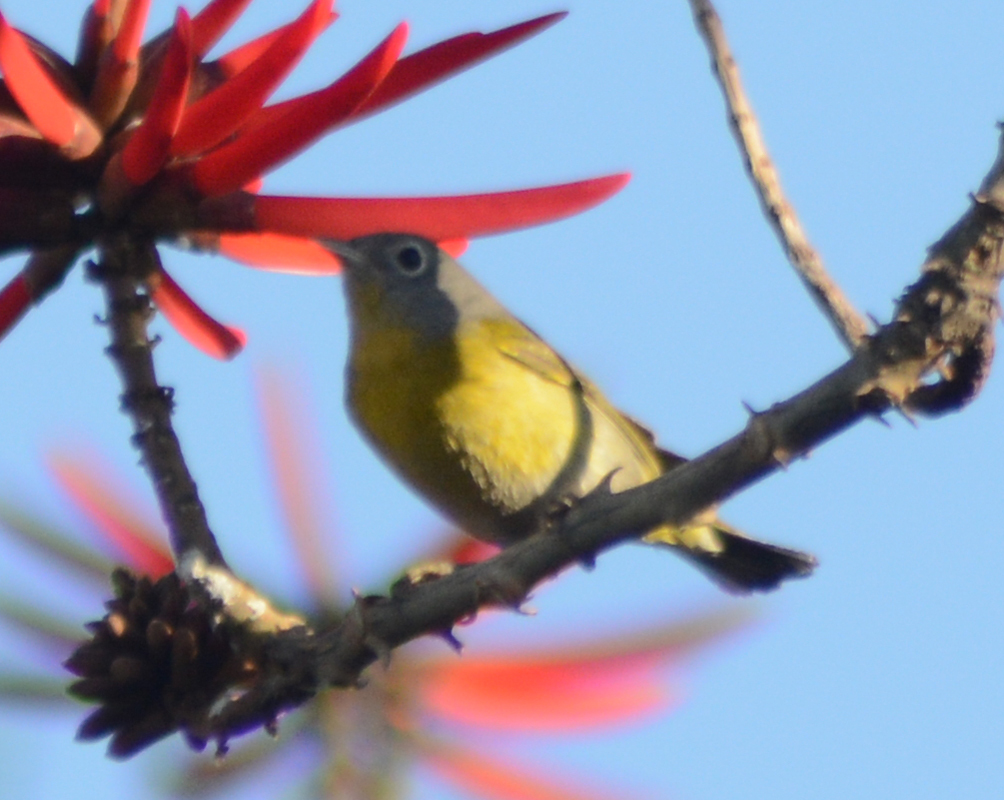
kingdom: Animalia
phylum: Chordata
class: Aves
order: Passeriformes
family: Parulidae
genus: Leiothlypis
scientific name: Leiothlypis ruficapilla
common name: Nashville warbler
